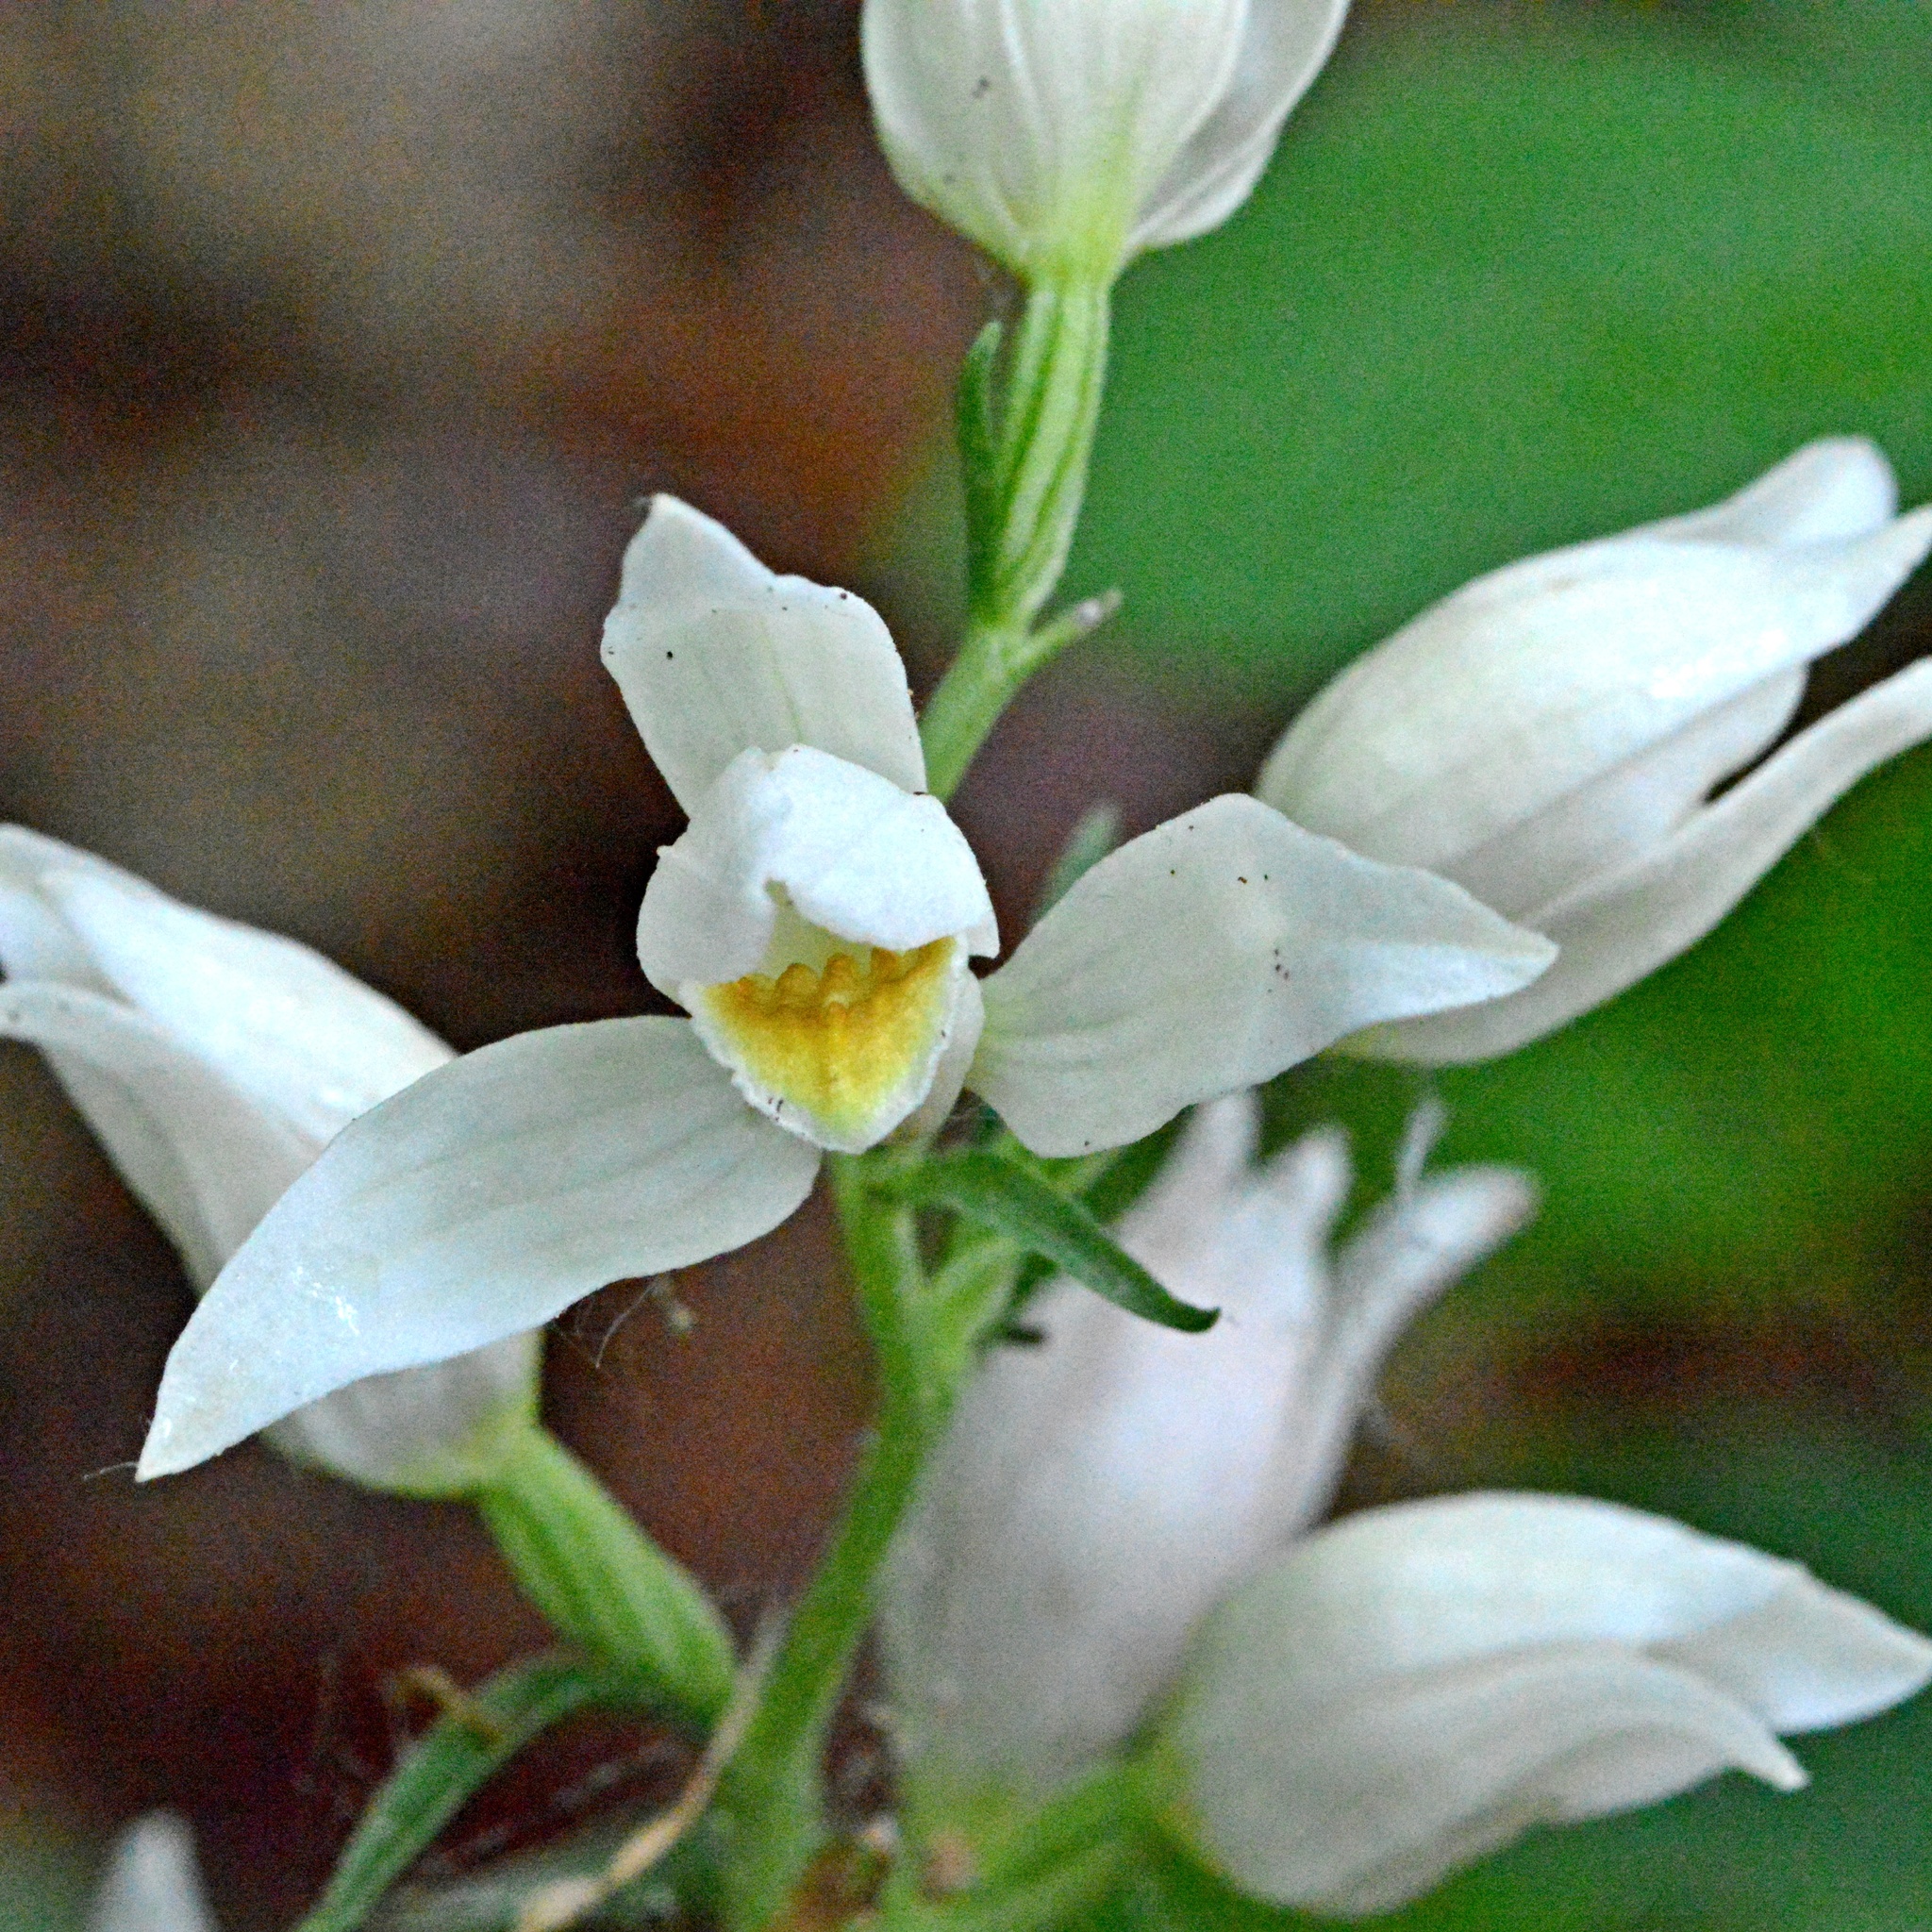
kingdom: Plantae
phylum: Tracheophyta
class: Liliopsida
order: Asparagales
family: Orchidaceae
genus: Cephalanthera
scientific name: Cephalanthera damasonium
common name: White helleborine
